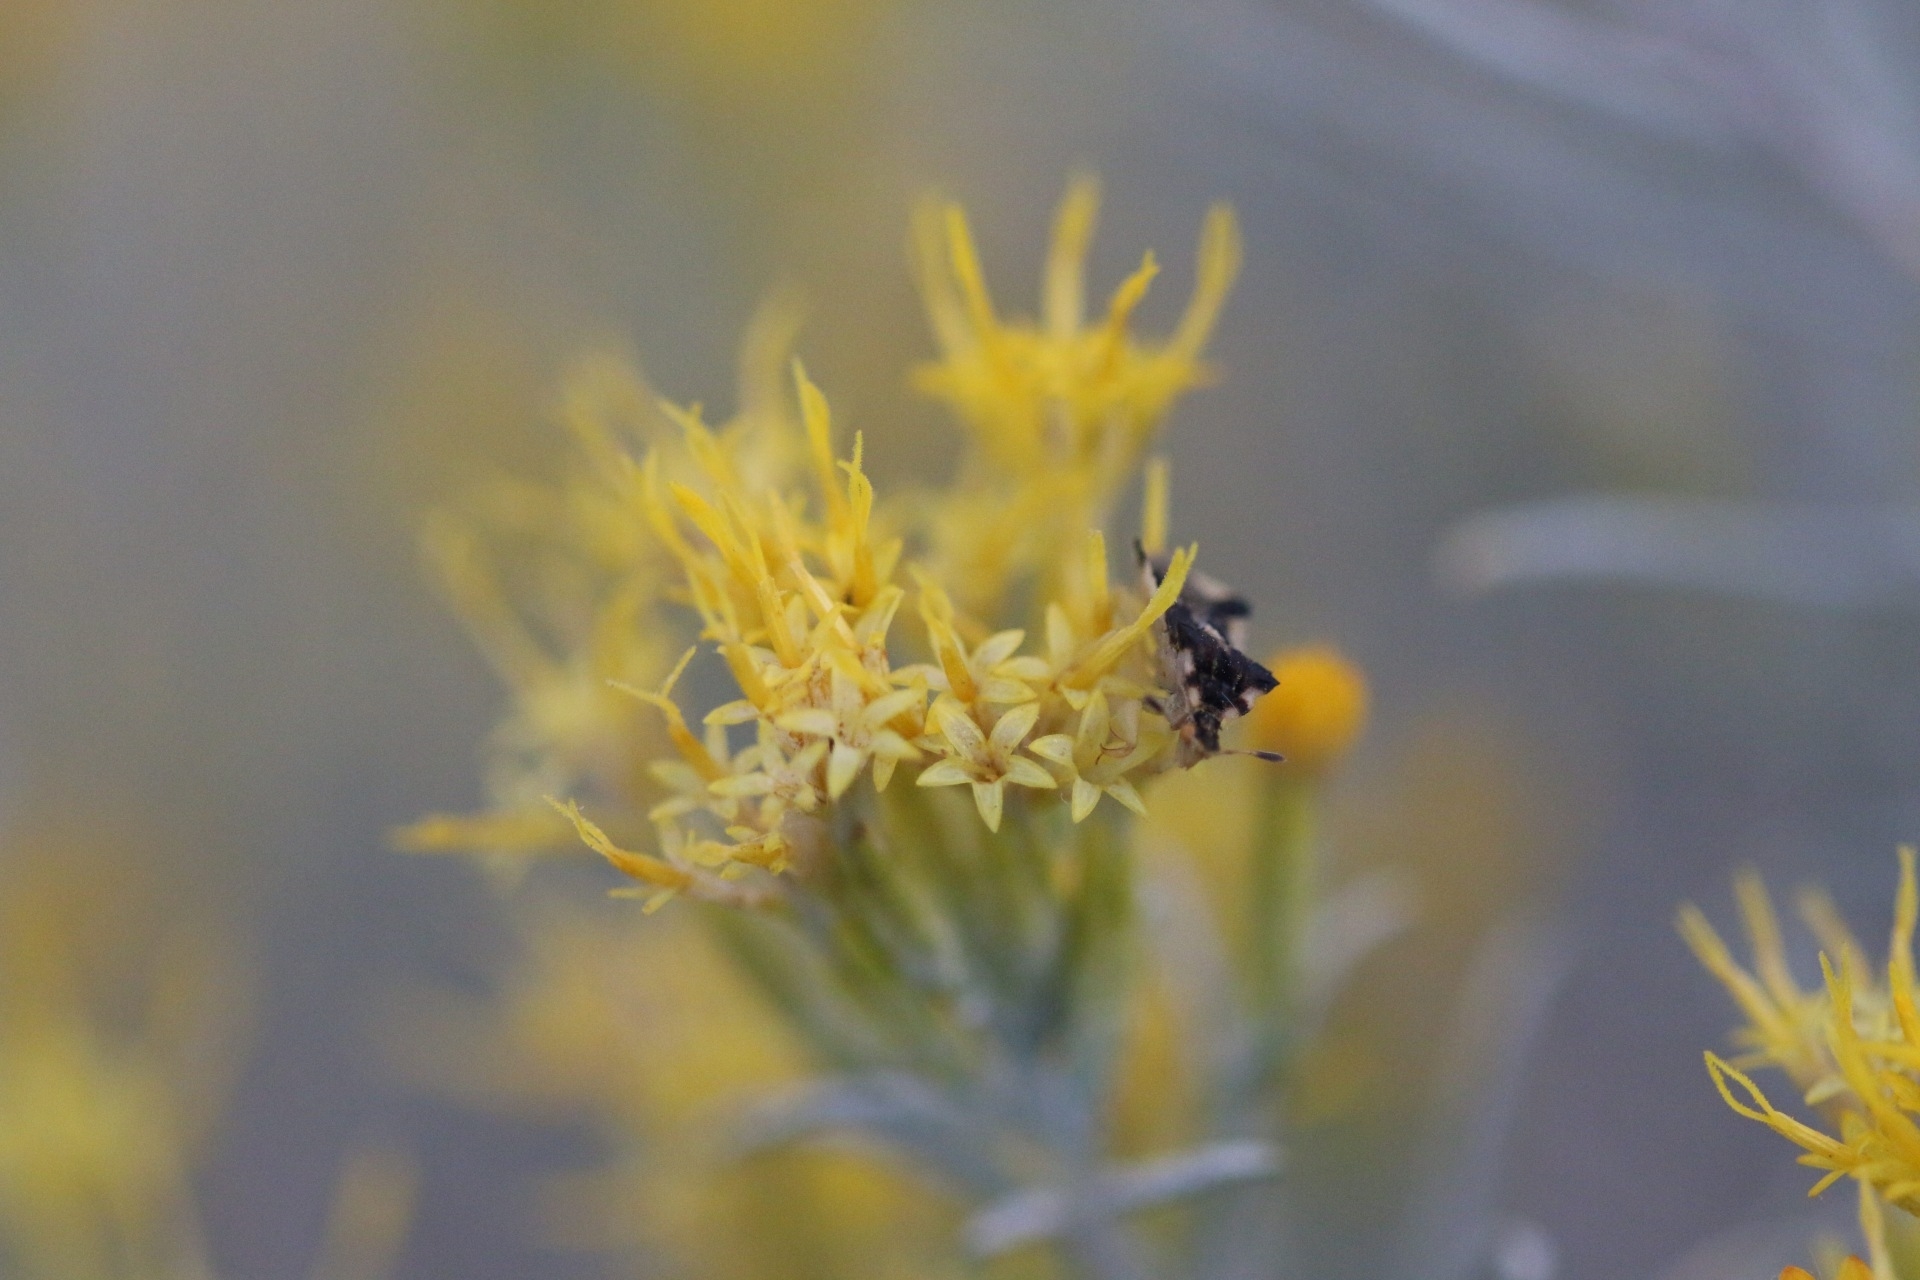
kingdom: Animalia
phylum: Arthropoda
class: Insecta
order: Hemiptera
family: Reduviidae
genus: Phymata
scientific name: Phymata americana
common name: Jagged ambush bug
